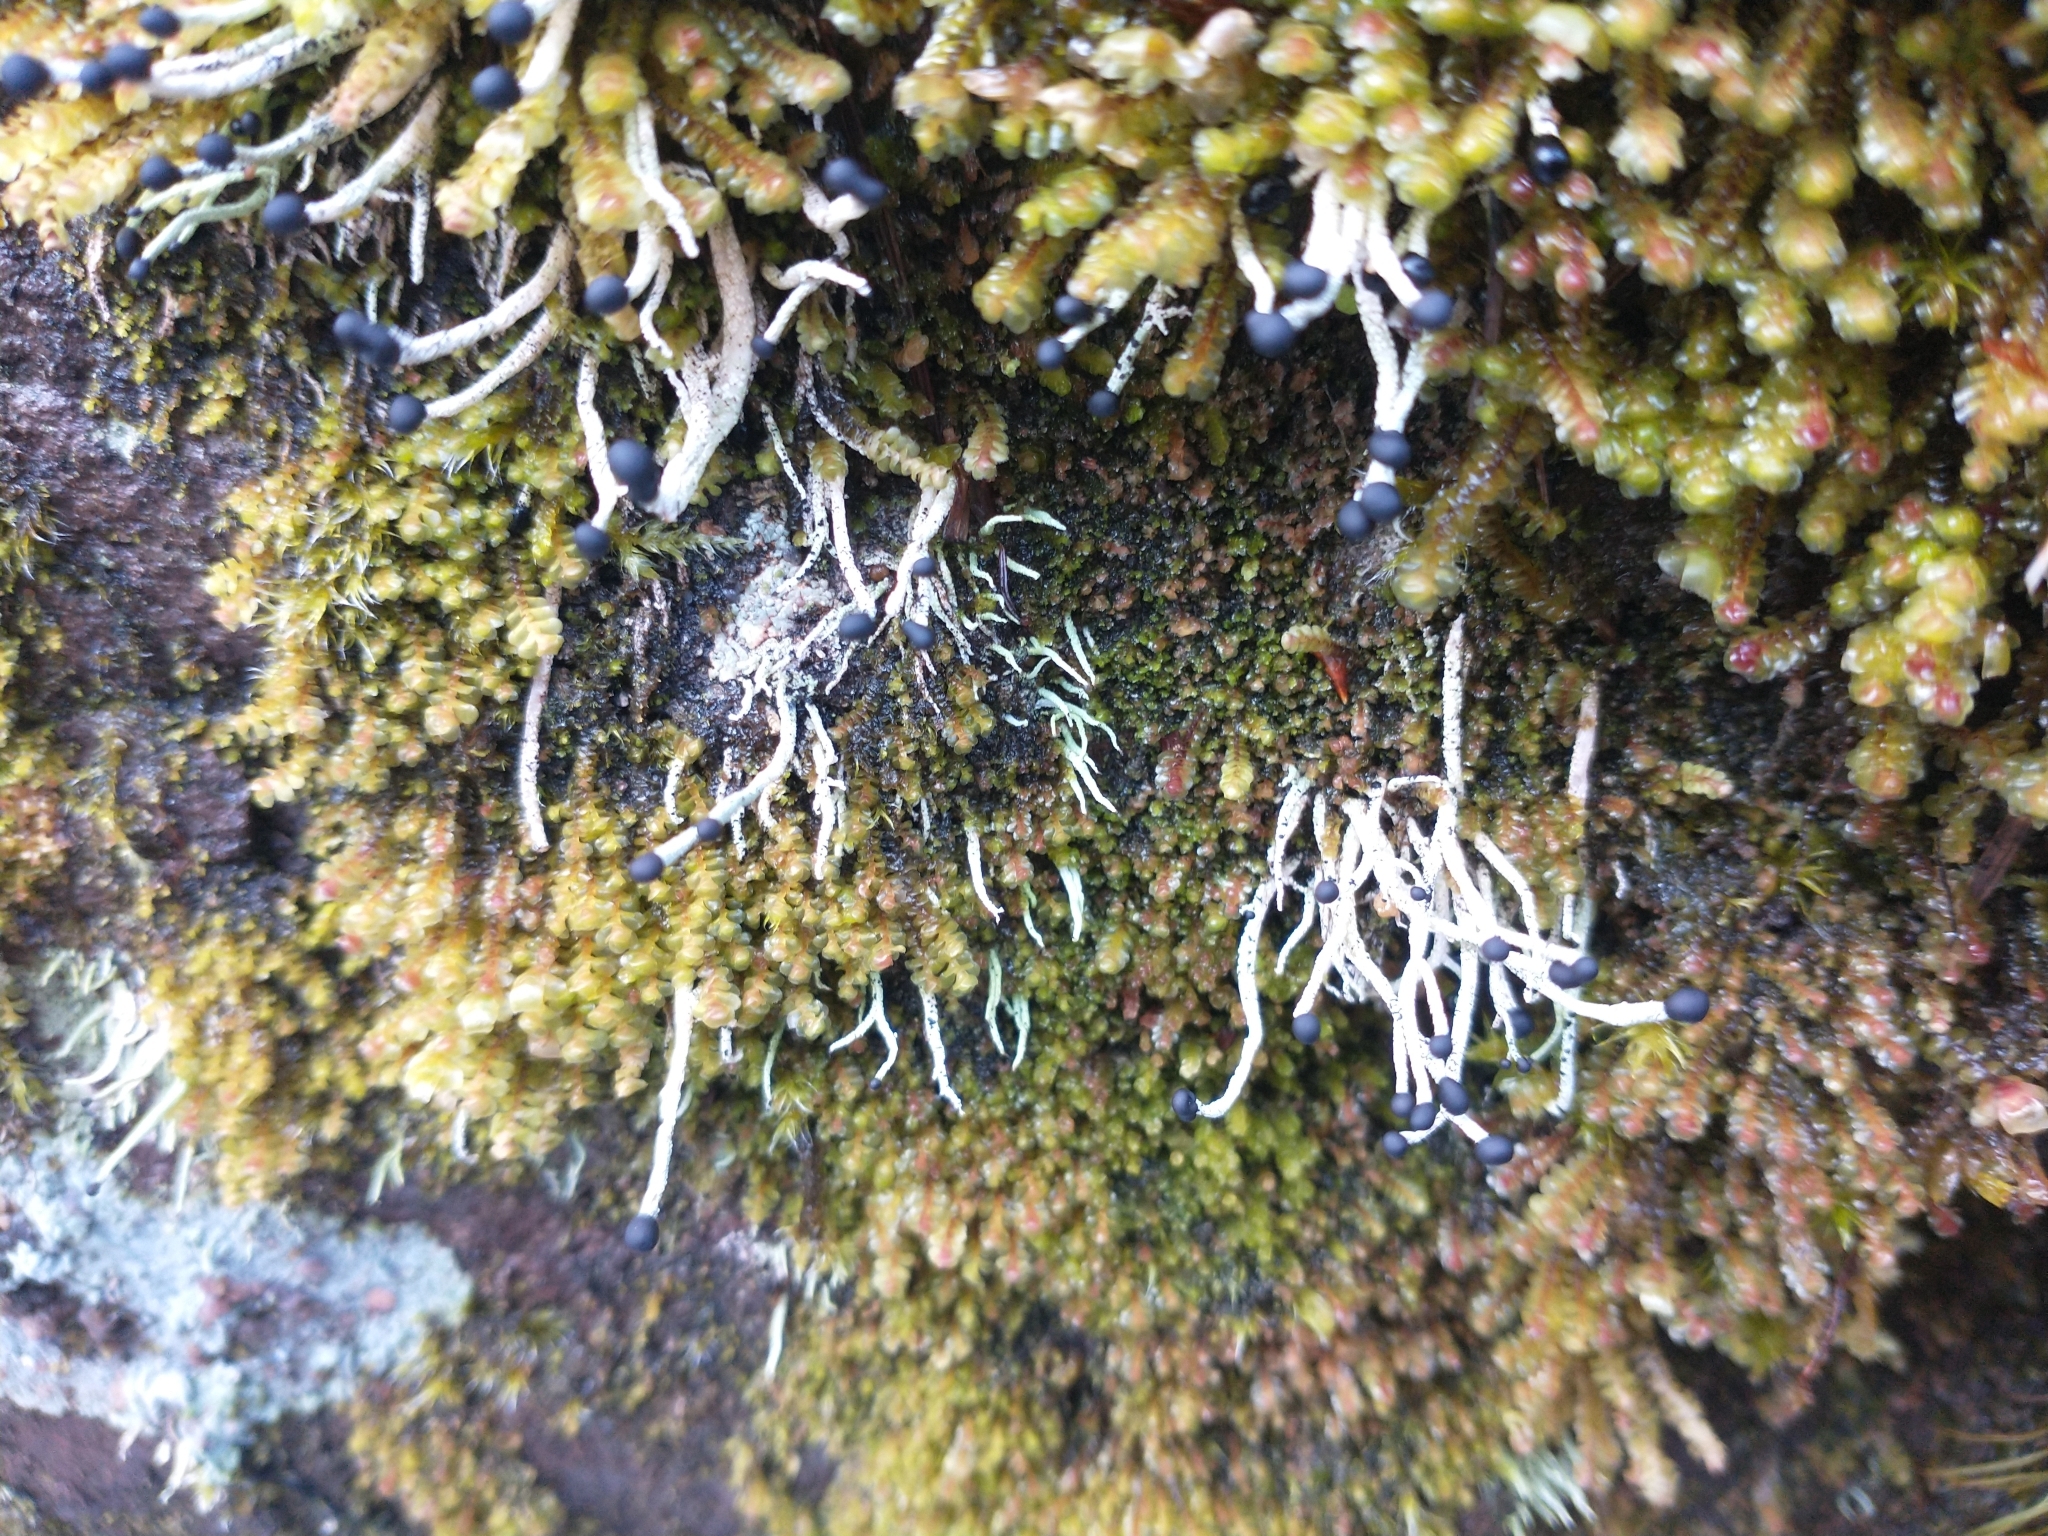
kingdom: Fungi
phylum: Ascomycota
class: Lecanoromycetes
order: Lecanorales
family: Cladoniaceae
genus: Pilophorus
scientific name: Pilophorus acicularis
